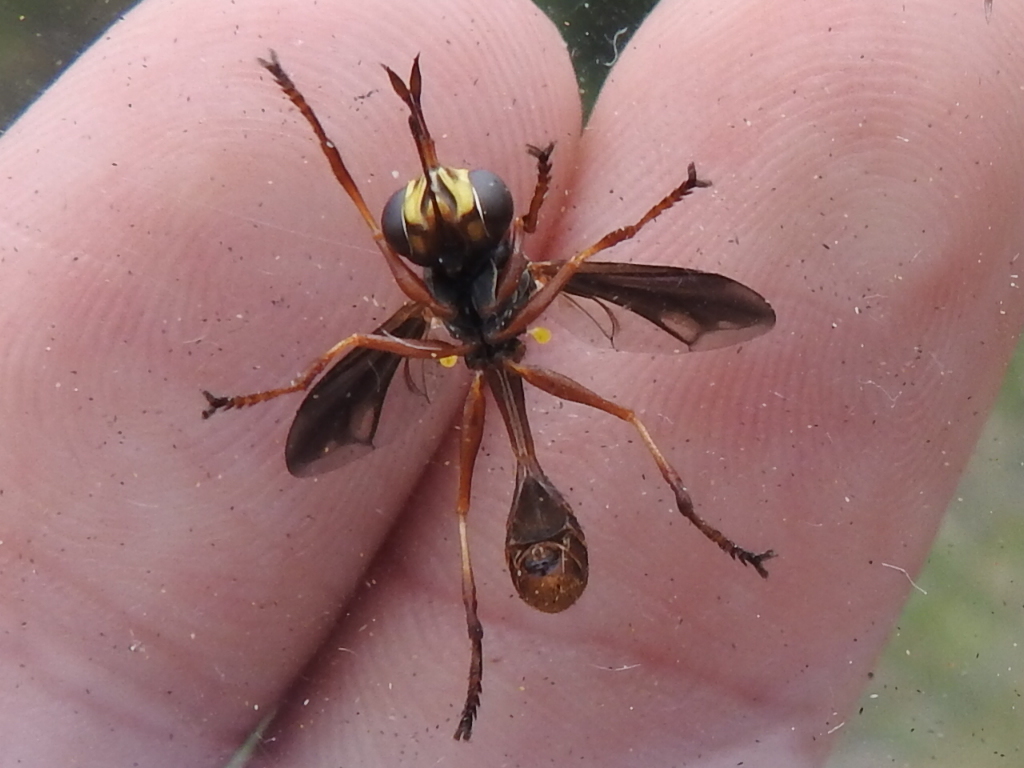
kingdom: Animalia
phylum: Arthropoda
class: Insecta
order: Diptera
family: Conopidae
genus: Physocephala
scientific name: Physocephala marginata
